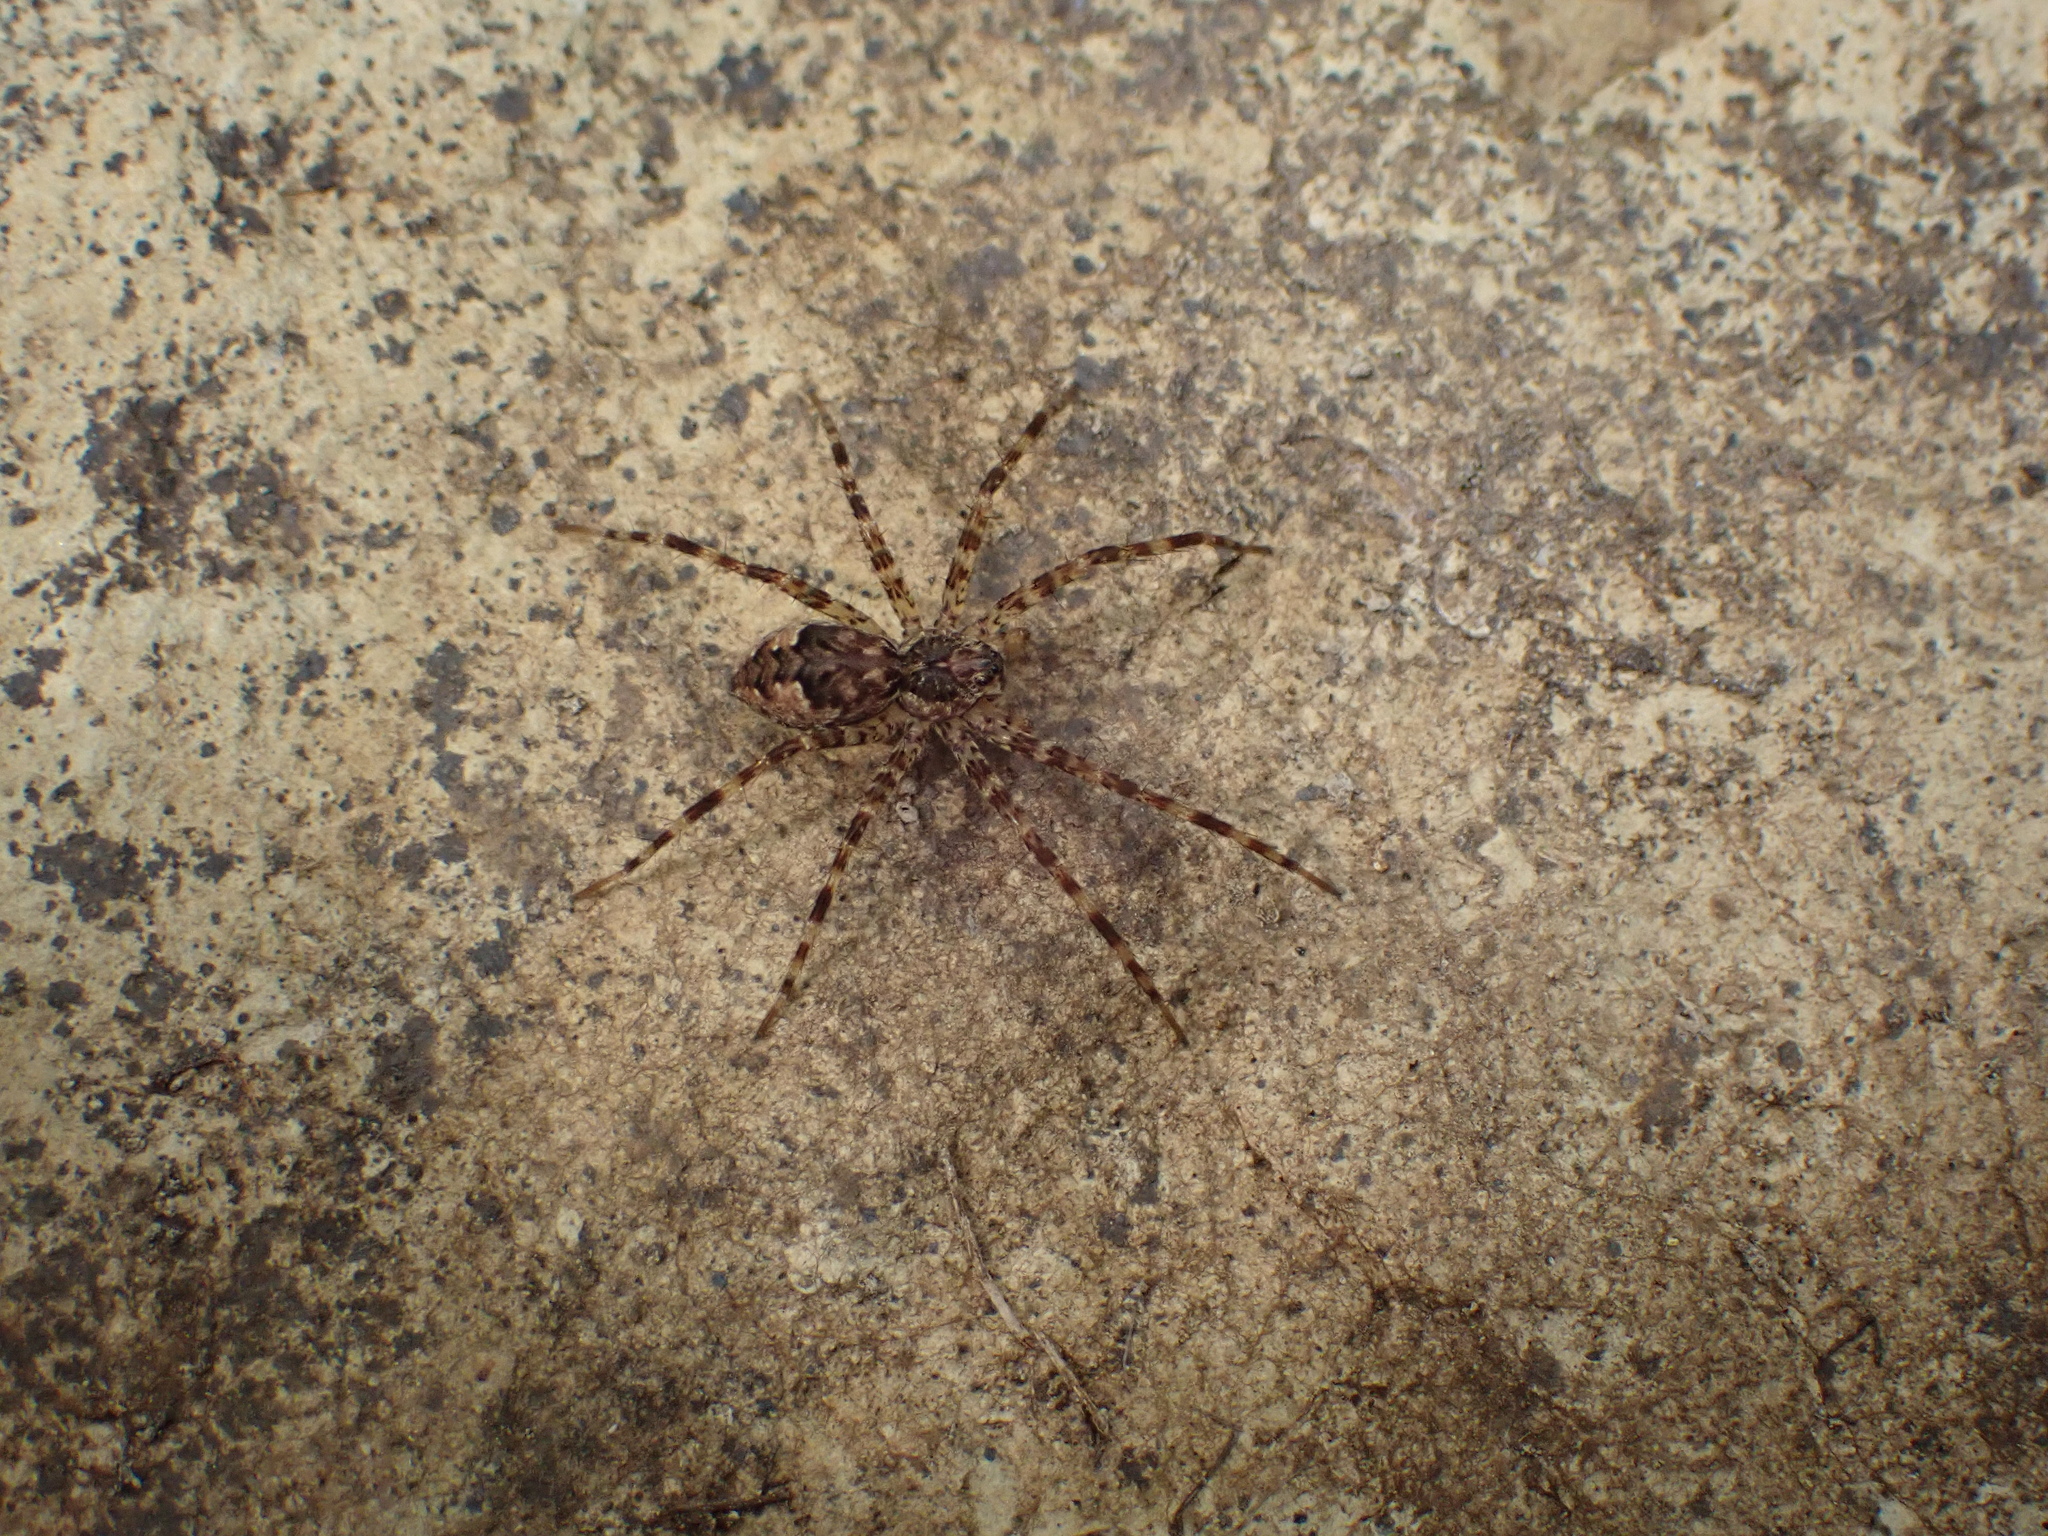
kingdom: Animalia
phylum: Arthropoda
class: Arachnida
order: Araneae
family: Pisauridae
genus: Dolomedes
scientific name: Dolomedes tenebrosus
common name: Dark fishing spider
